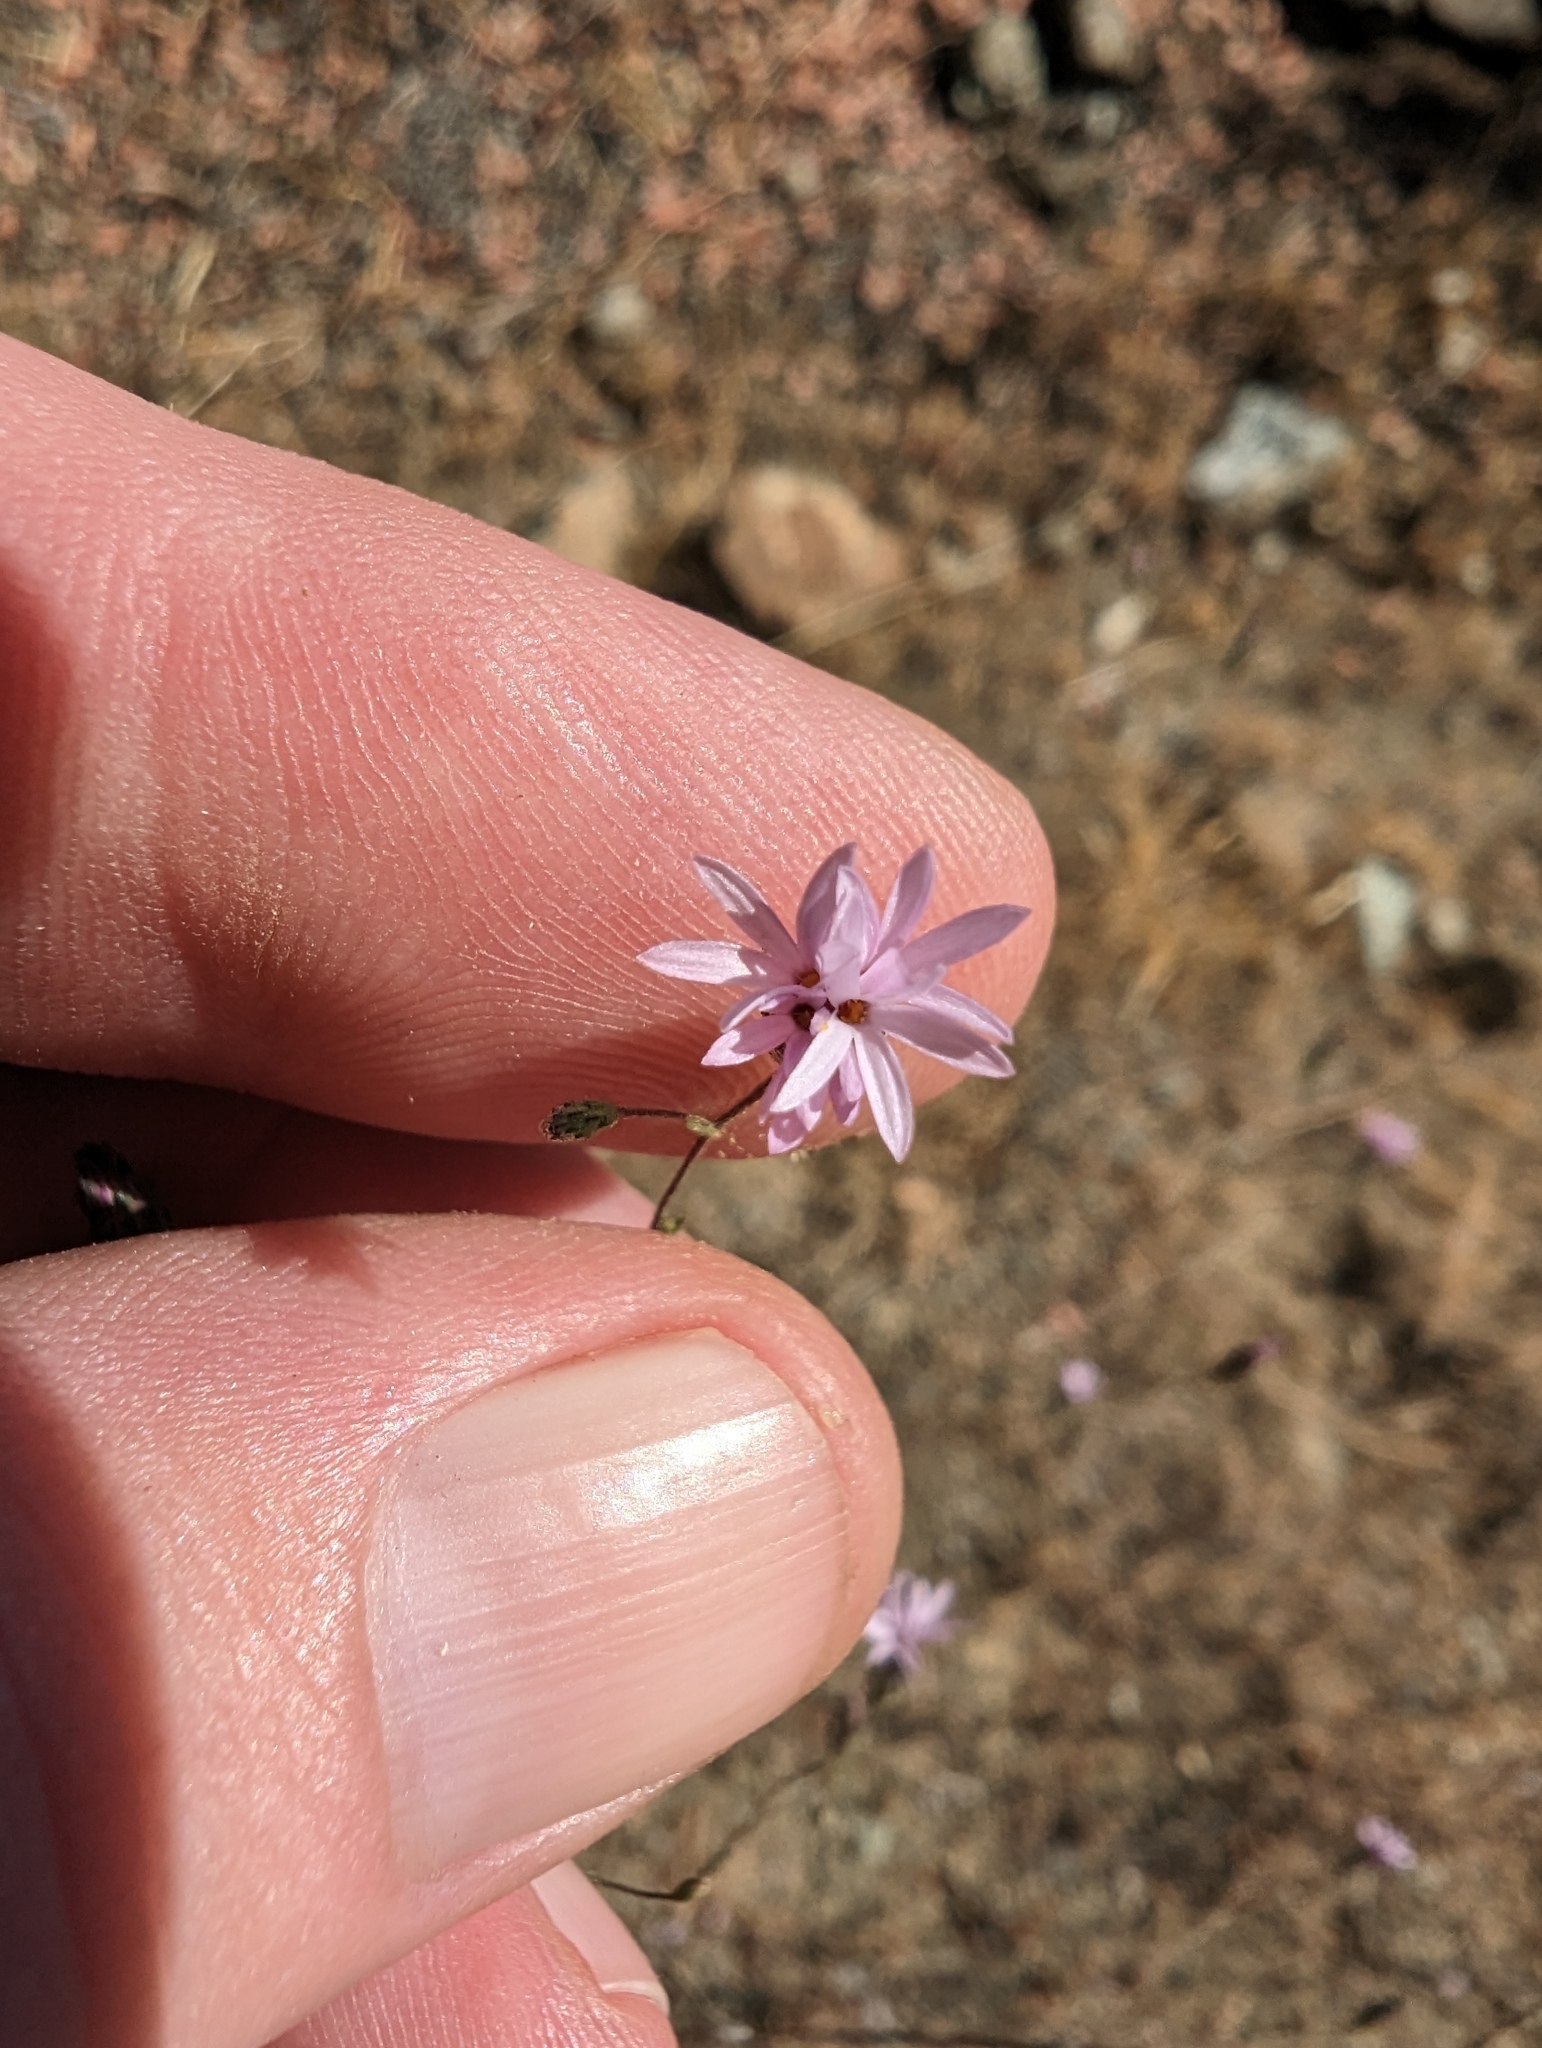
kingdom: Plantae
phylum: Tracheophyta
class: Magnoliopsida
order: Asterales
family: Asteraceae
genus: Lessingia
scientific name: Lessingia micradenia
